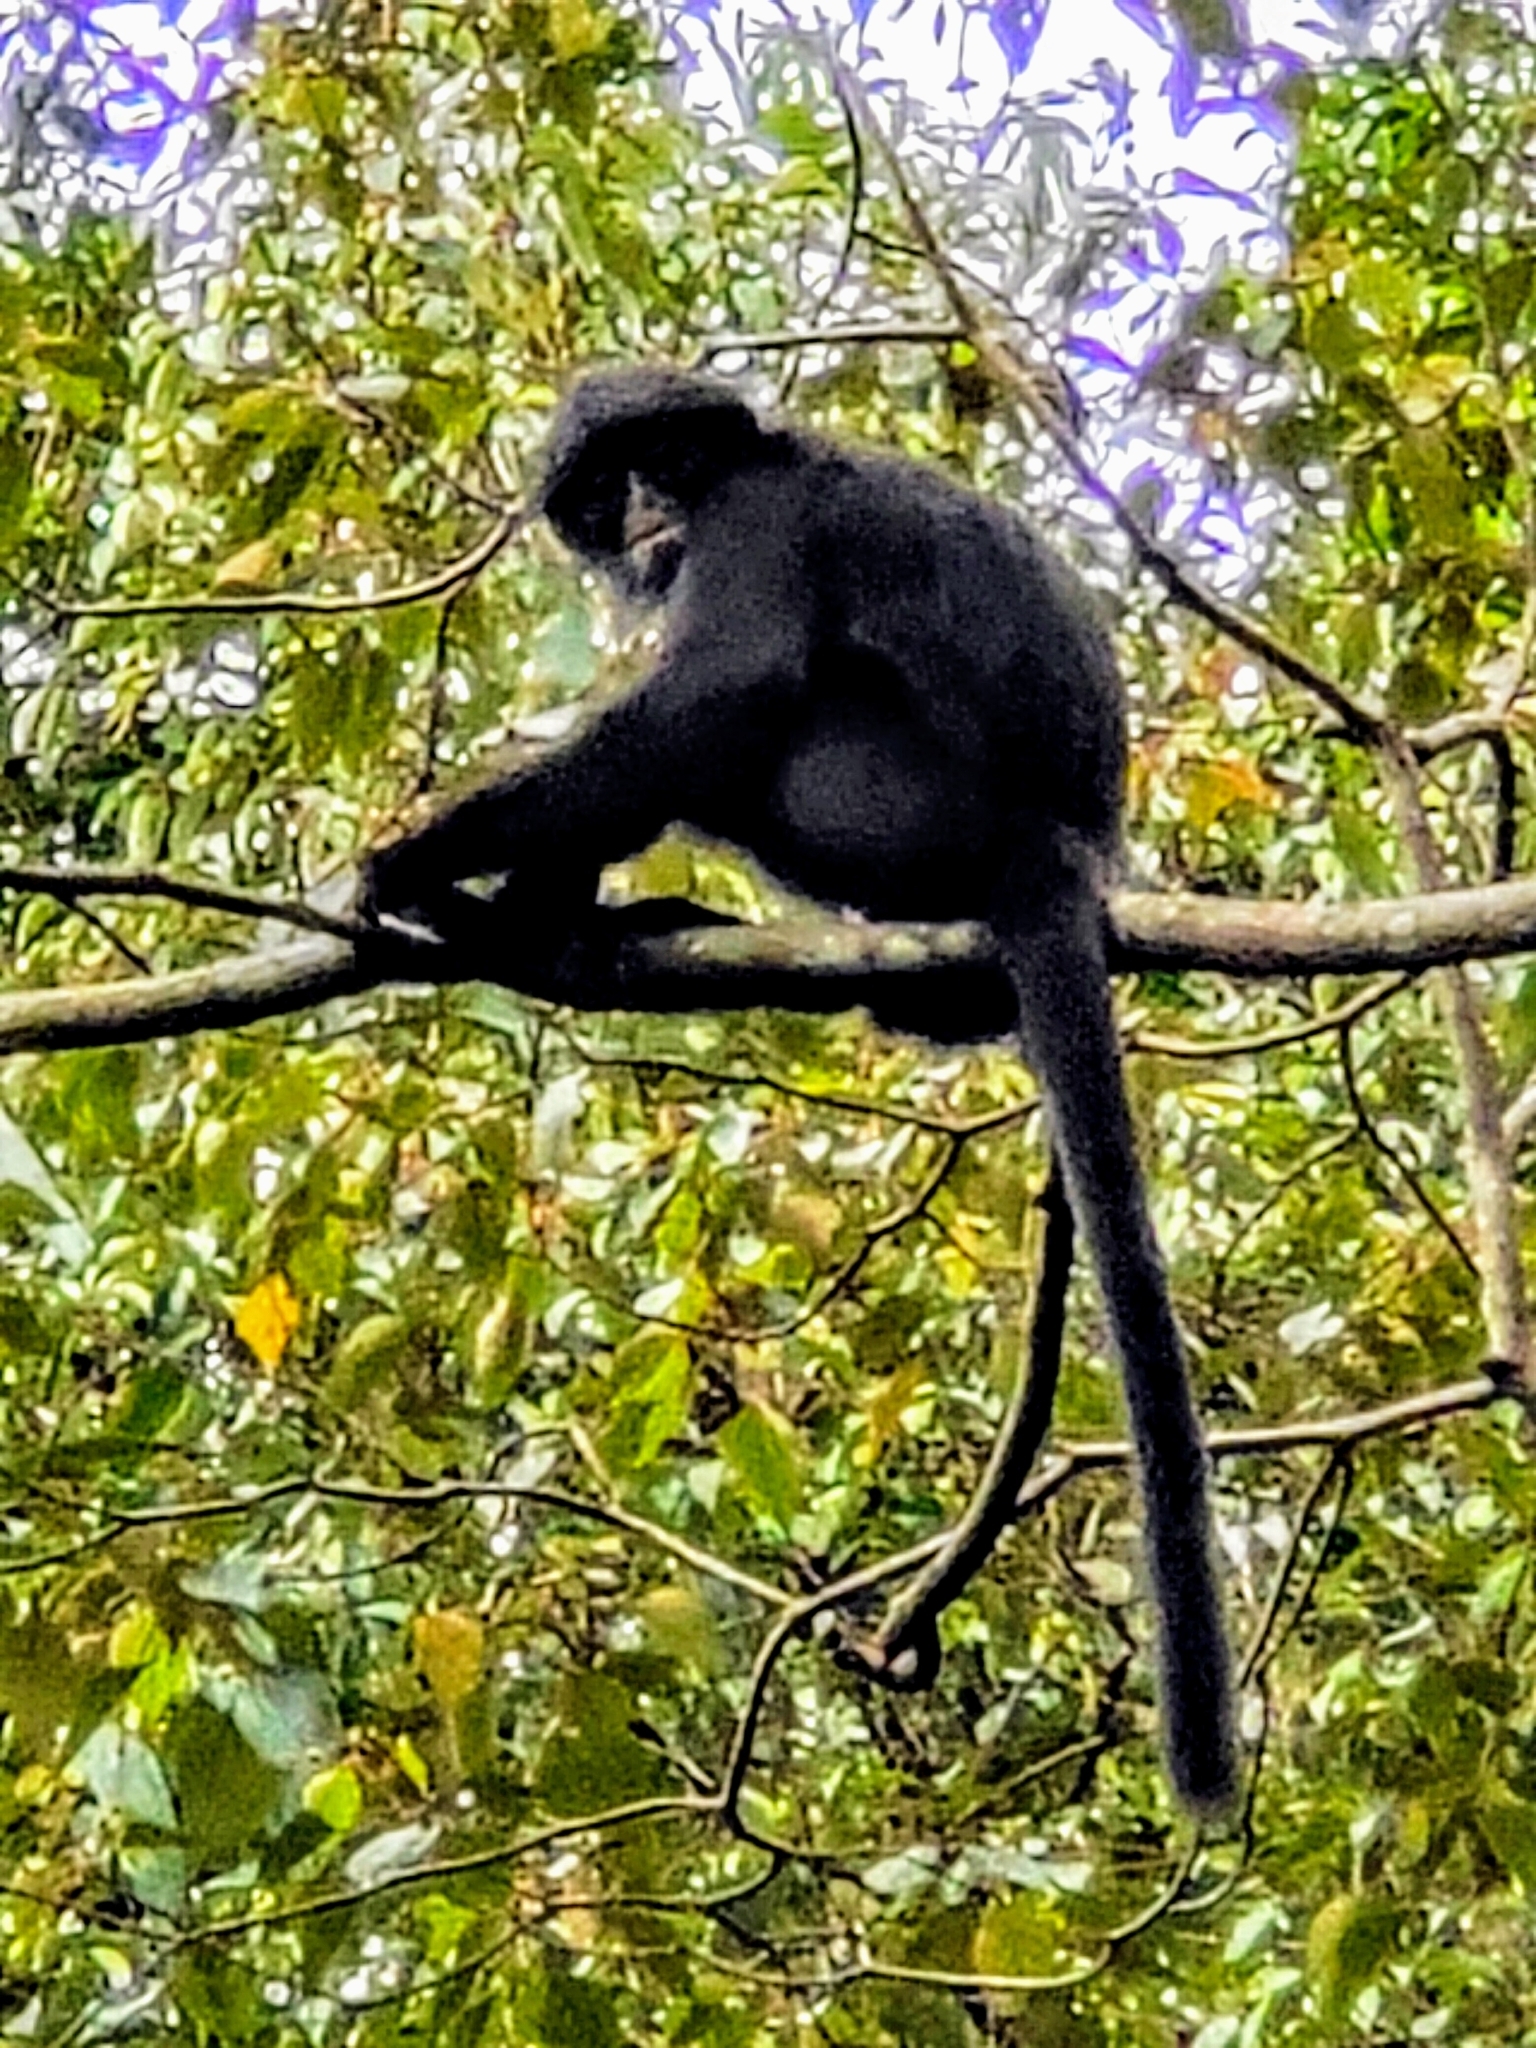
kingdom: Animalia
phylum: Chordata
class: Mammalia
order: Primates
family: Cercopithecidae
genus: Presbytis
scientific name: Presbytis femoralis
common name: Banded surili
